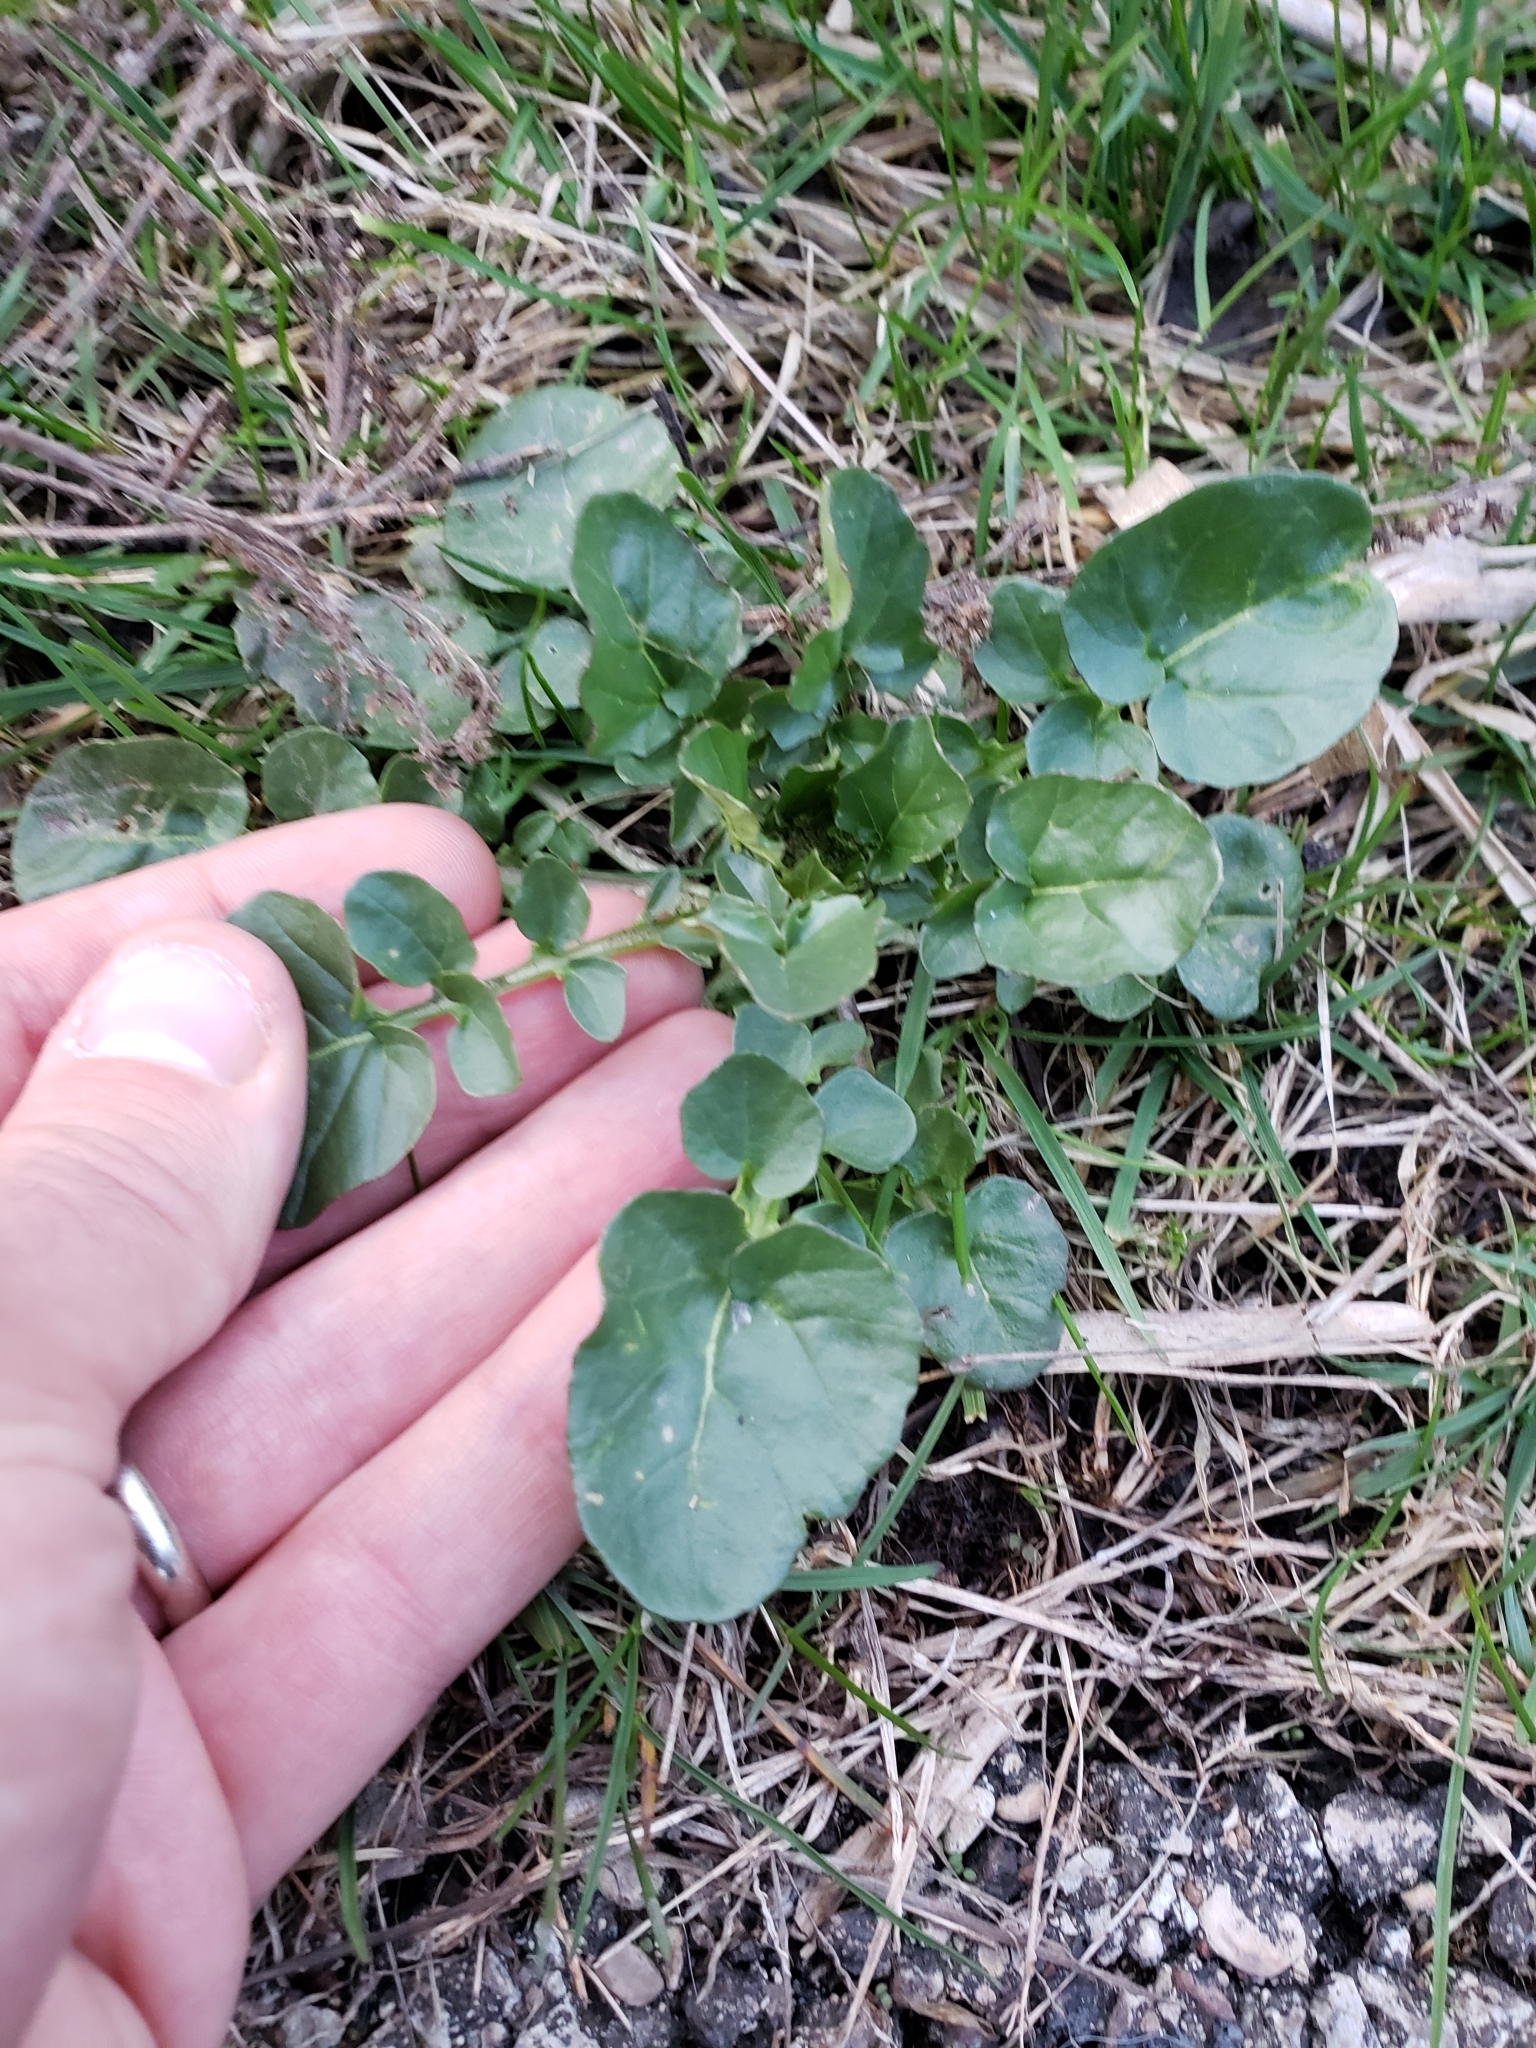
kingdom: Plantae
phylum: Tracheophyta
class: Magnoliopsida
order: Brassicales
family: Brassicaceae
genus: Barbarea
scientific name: Barbarea vulgaris
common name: Cressy-greens
